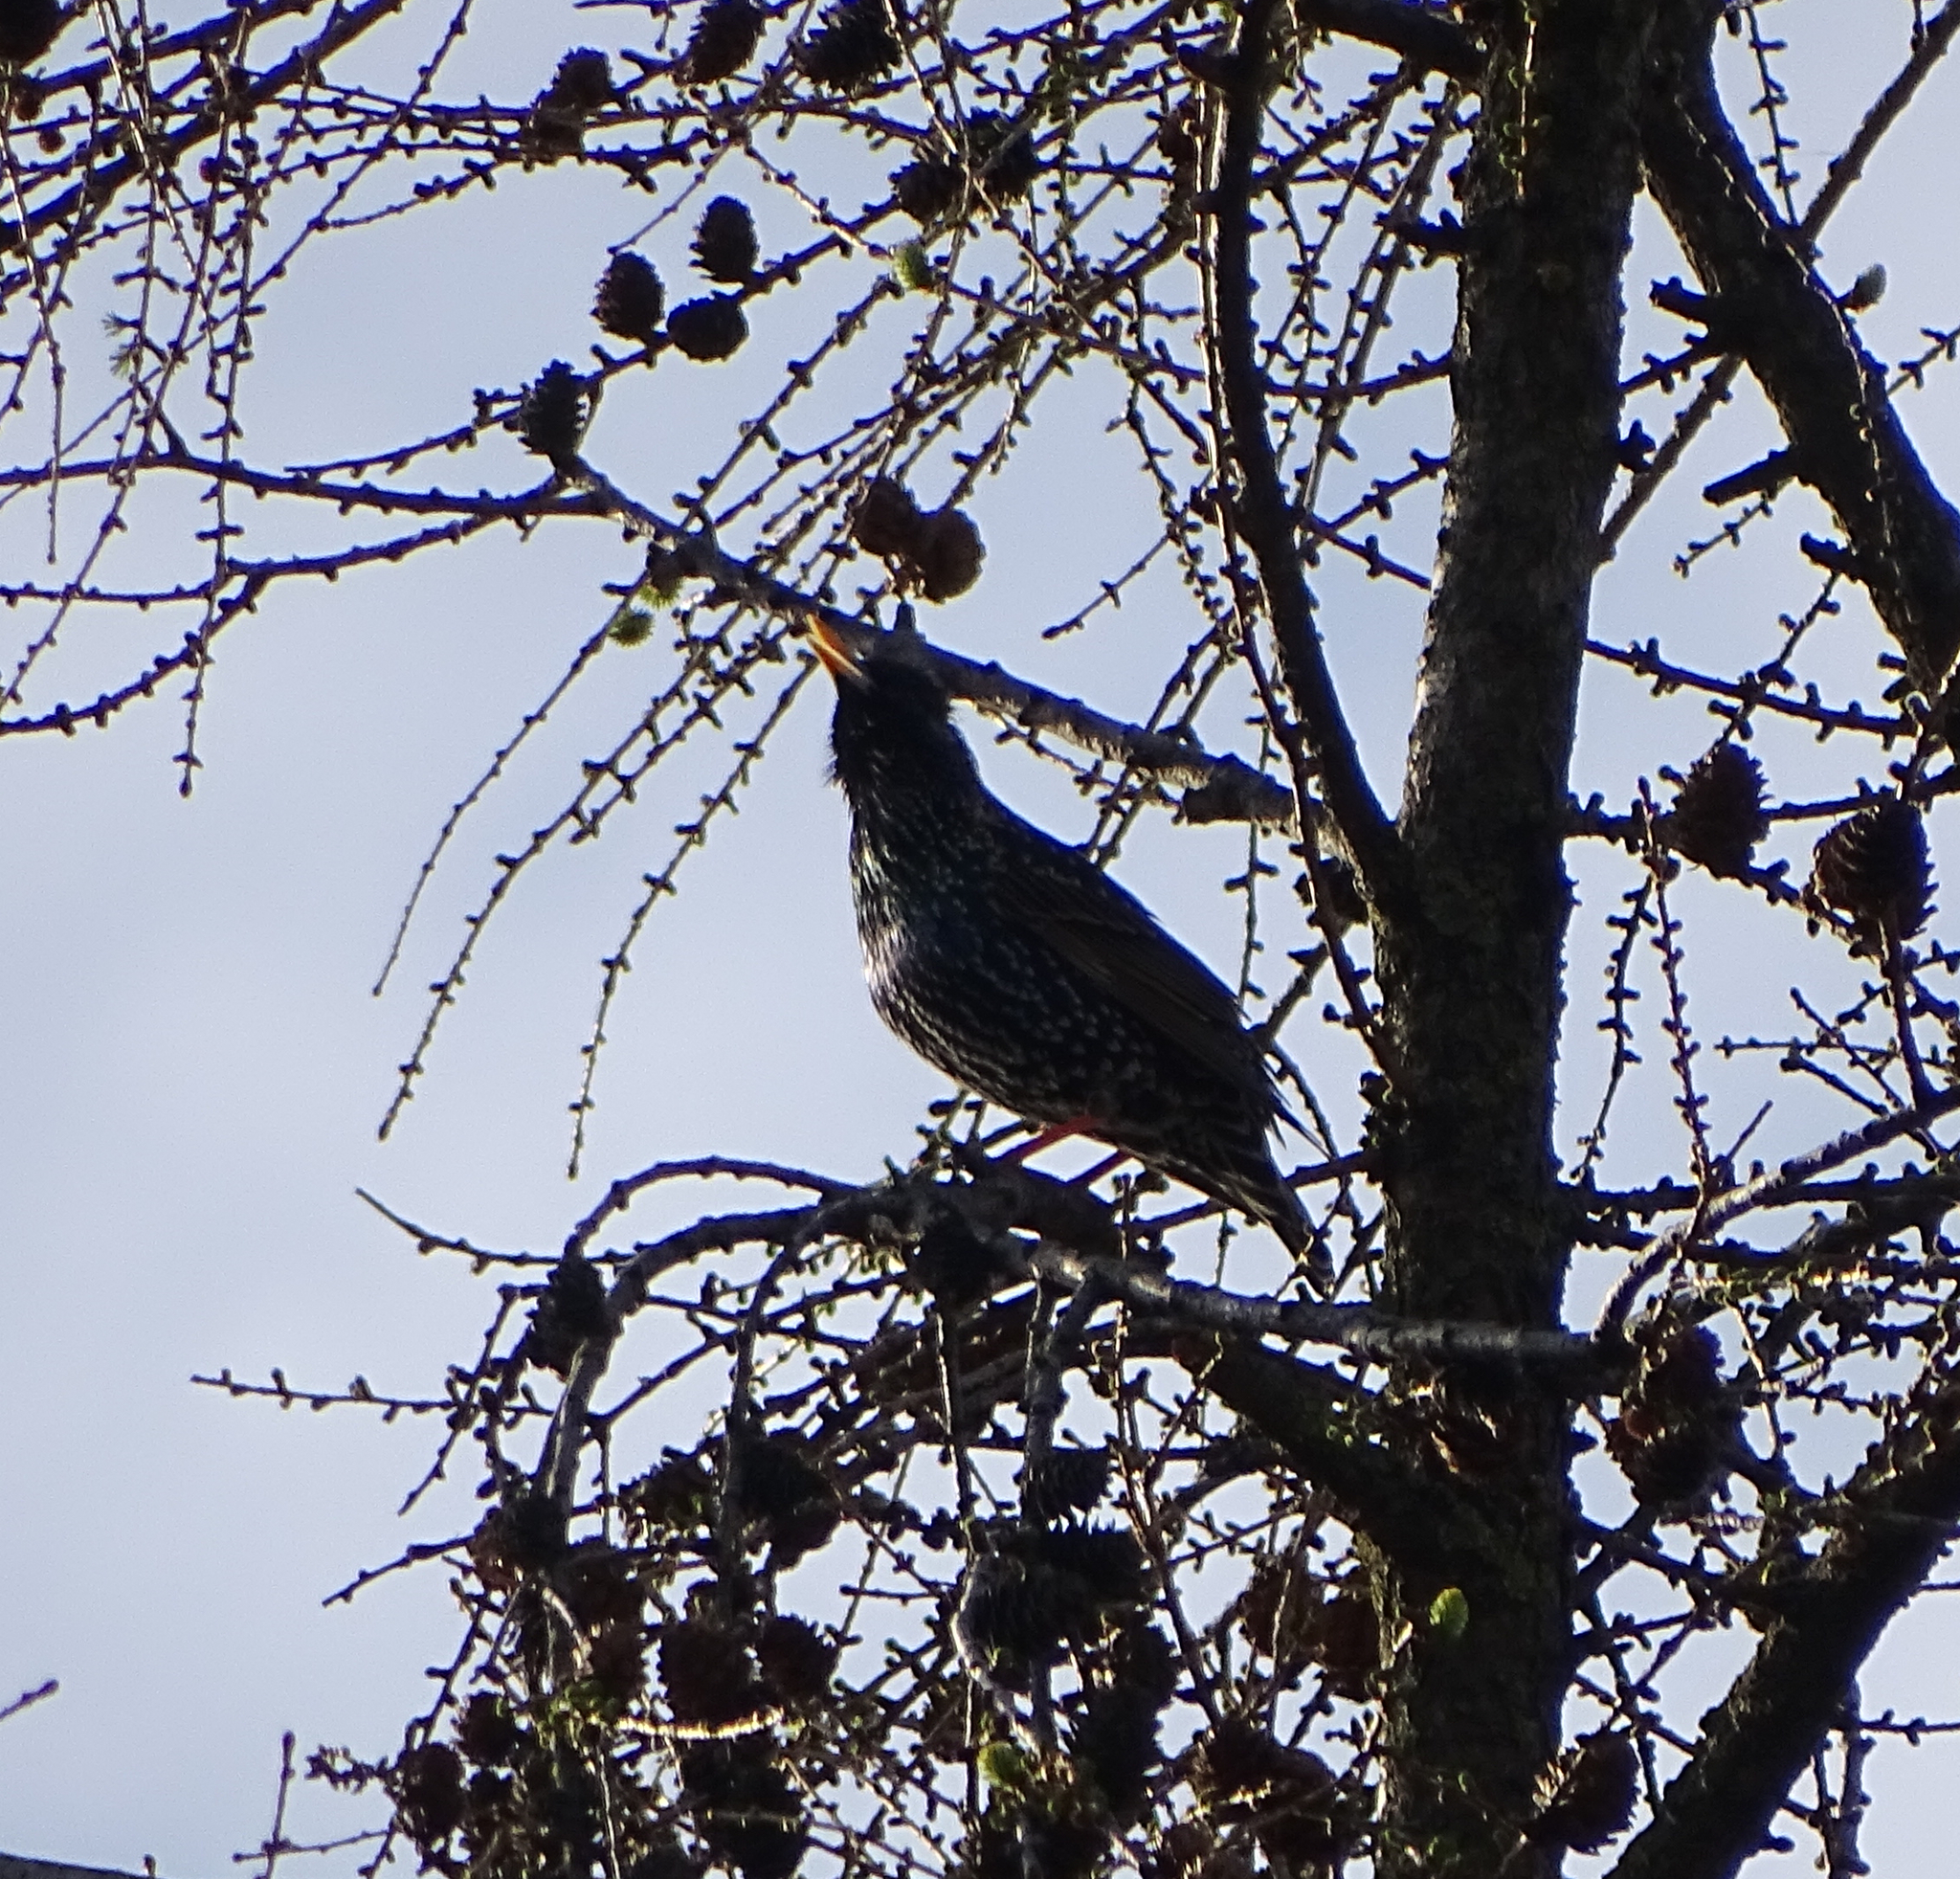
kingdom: Animalia
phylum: Chordata
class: Aves
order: Passeriformes
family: Sturnidae
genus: Sturnus
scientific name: Sturnus vulgaris
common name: Common starling
